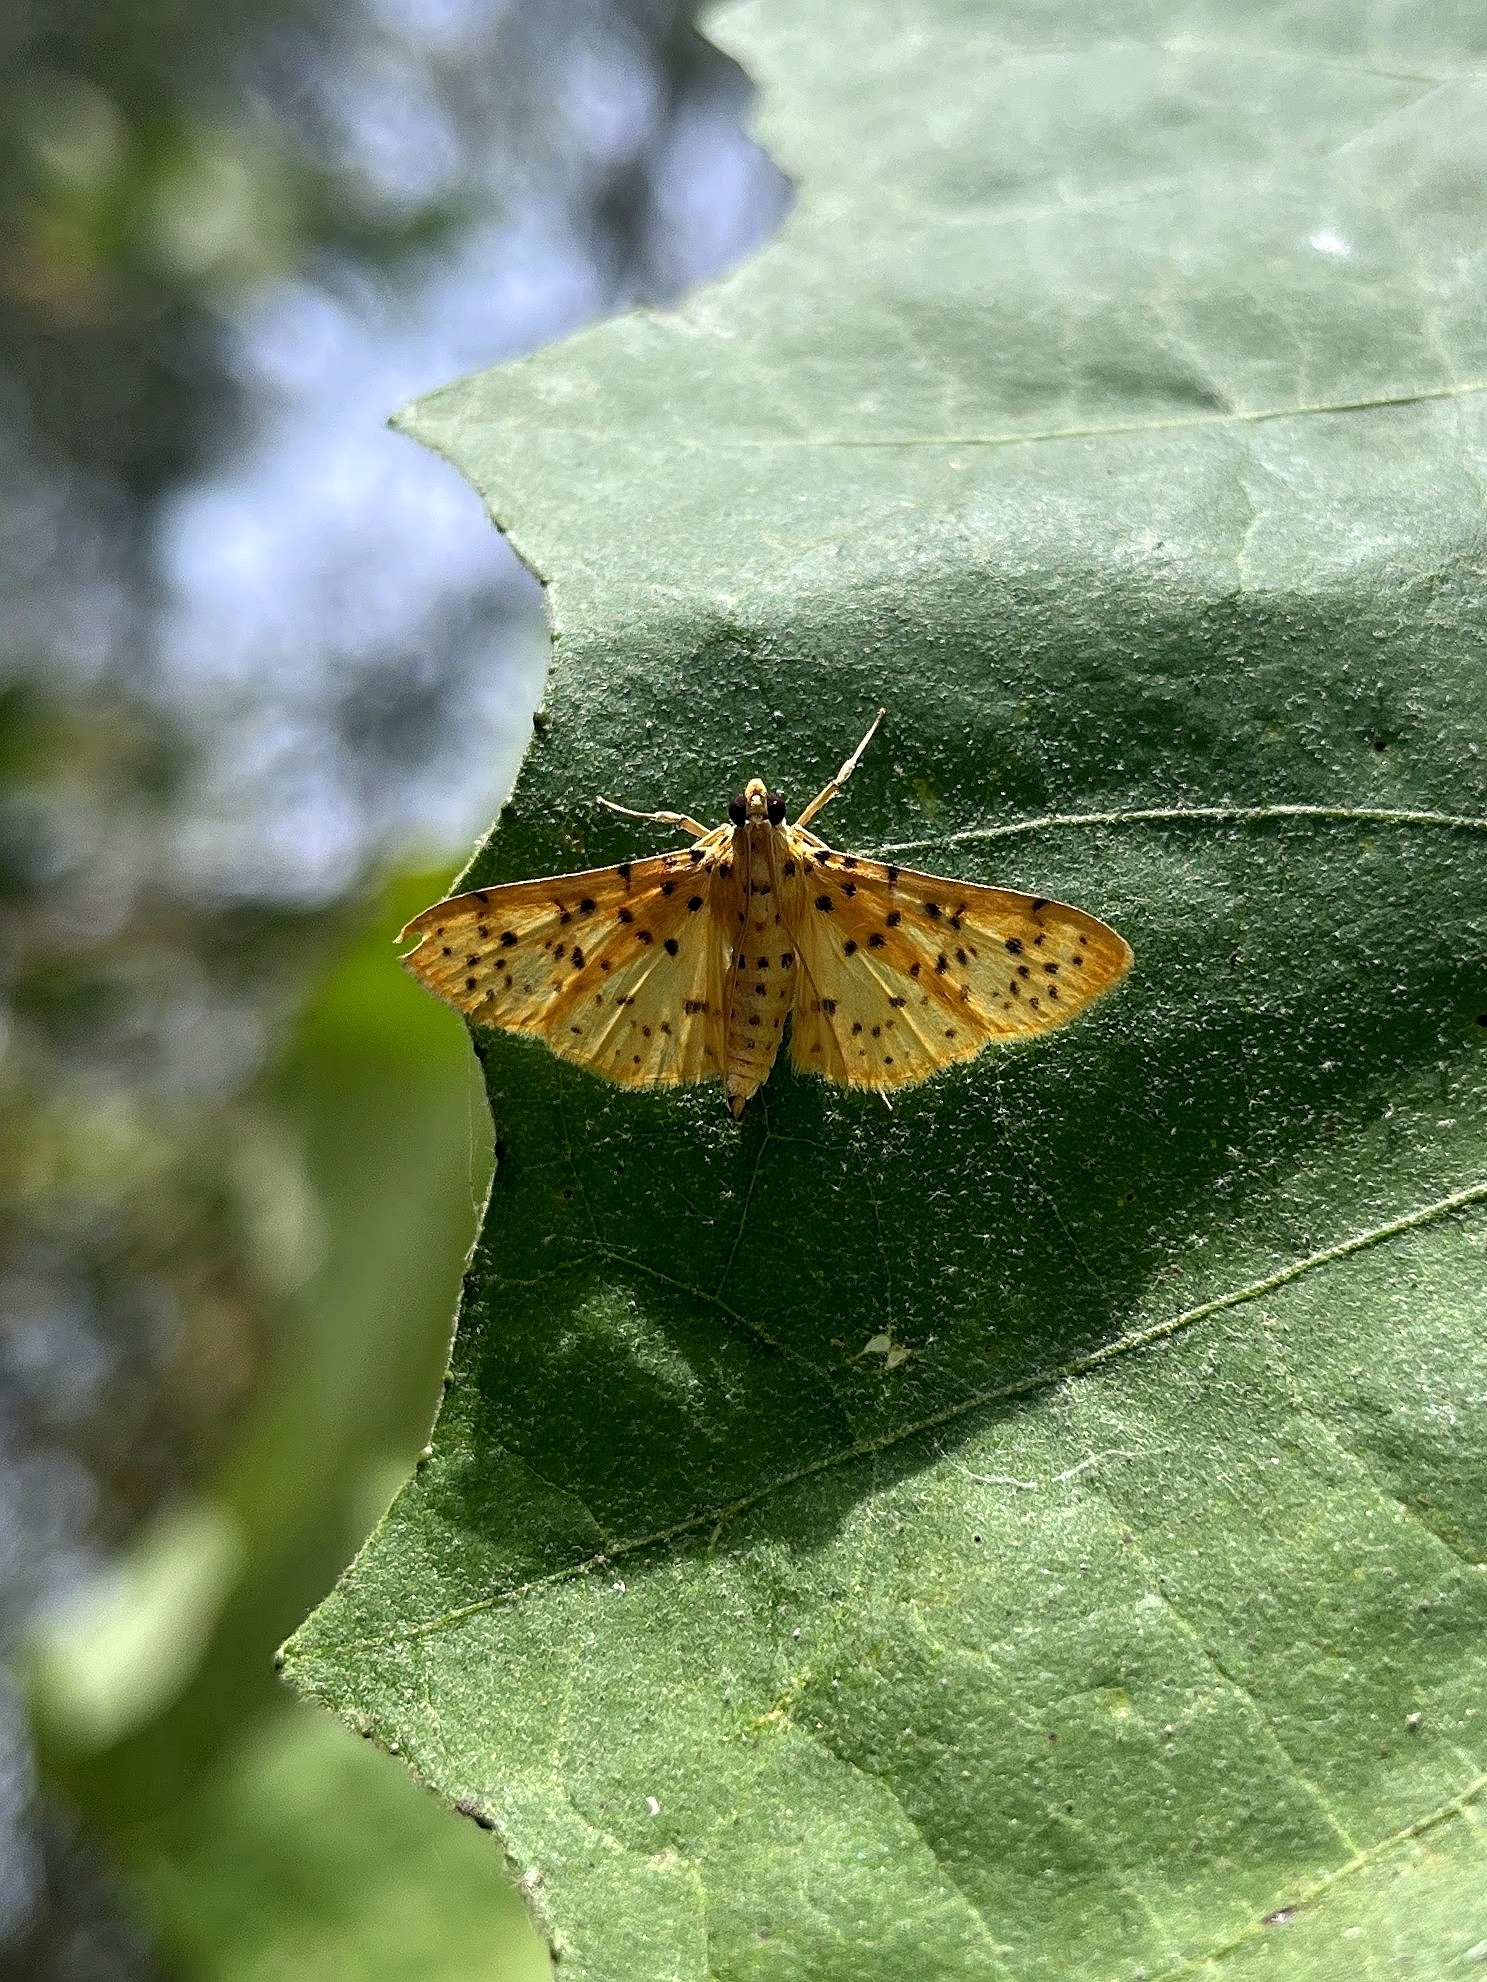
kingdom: Animalia
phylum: Arthropoda
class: Insecta
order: Lepidoptera
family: Crambidae
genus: Conogethes
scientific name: Conogethes punctiferalis
